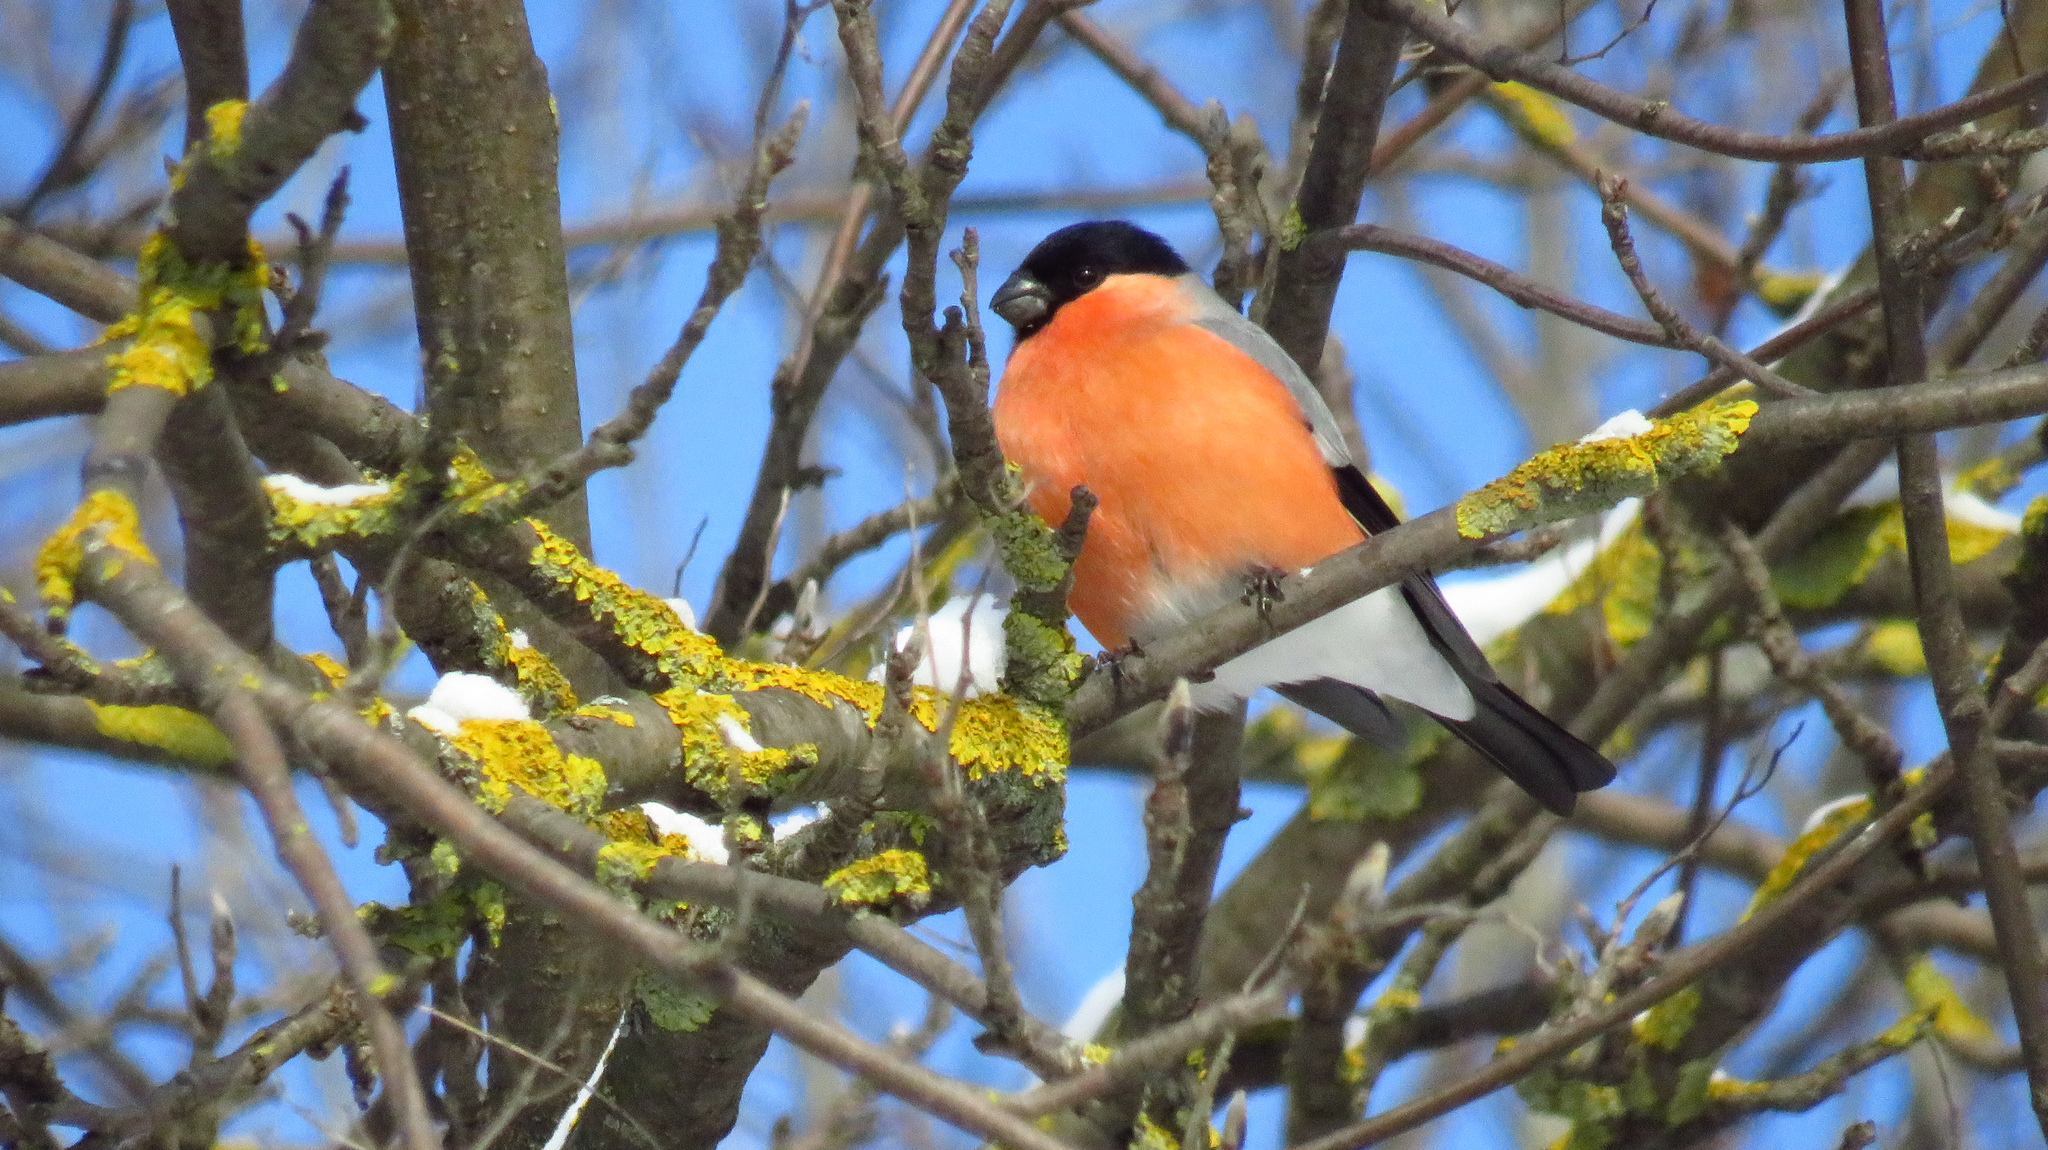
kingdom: Animalia
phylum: Chordata
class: Aves
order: Passeriformes
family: Fringillidae
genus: Pyrrhula
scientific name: Pyrrhula pyrrhula
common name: Eurasian bullfinch
